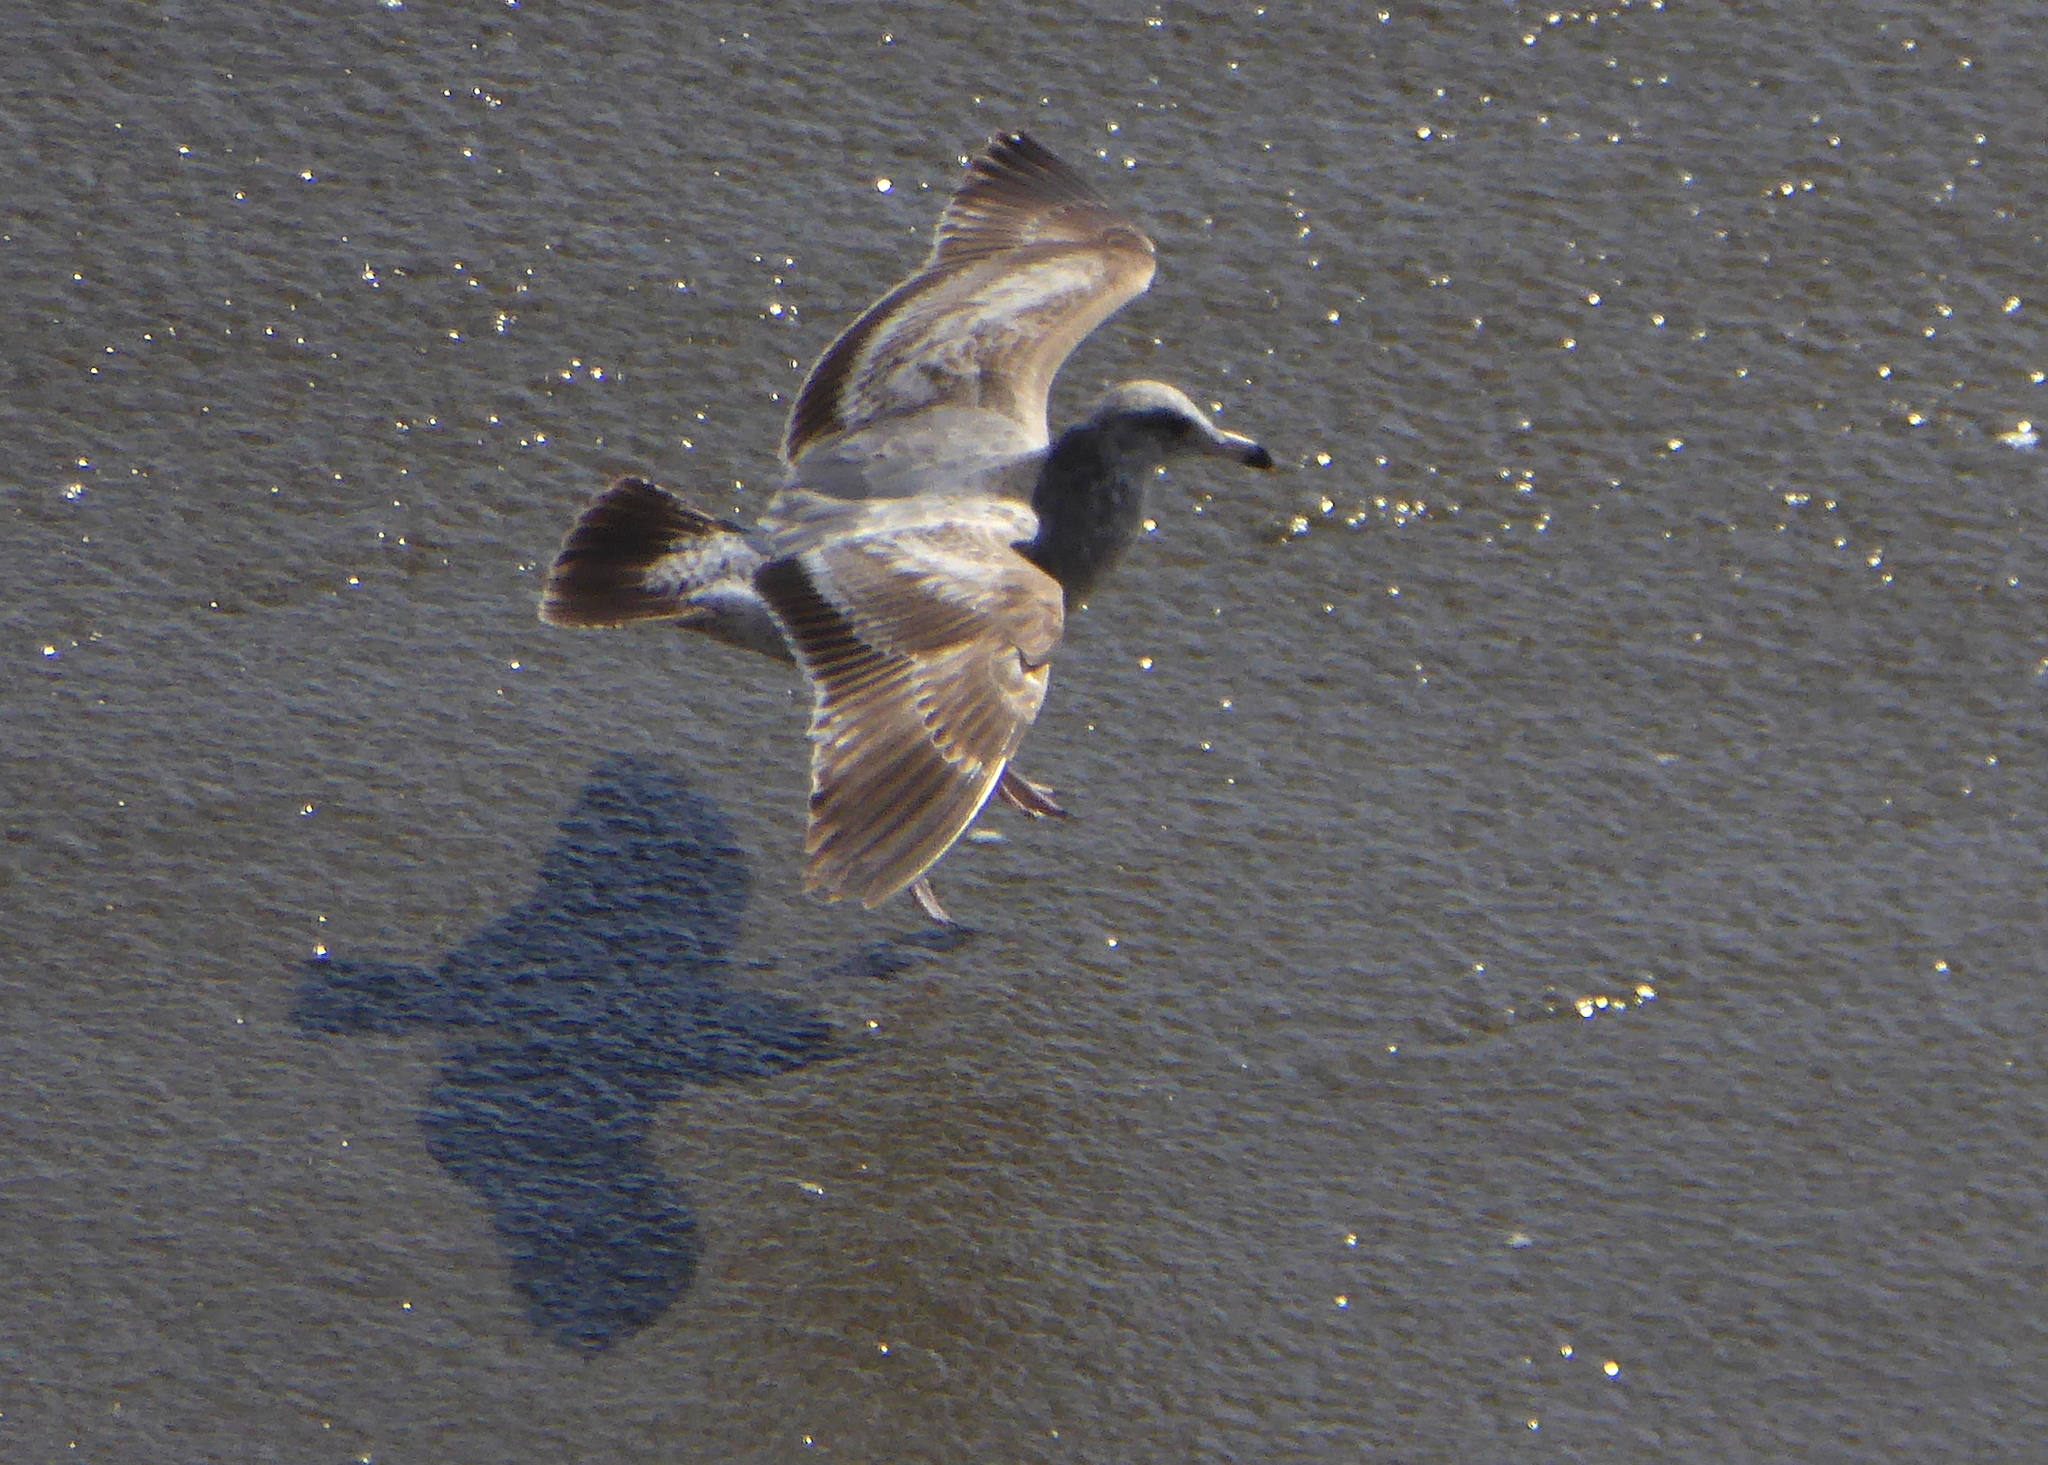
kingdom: Animalia
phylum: Chordata
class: Aves
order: Charadriiformes
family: Laridae
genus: Larus
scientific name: Larus californicus
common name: California gull
